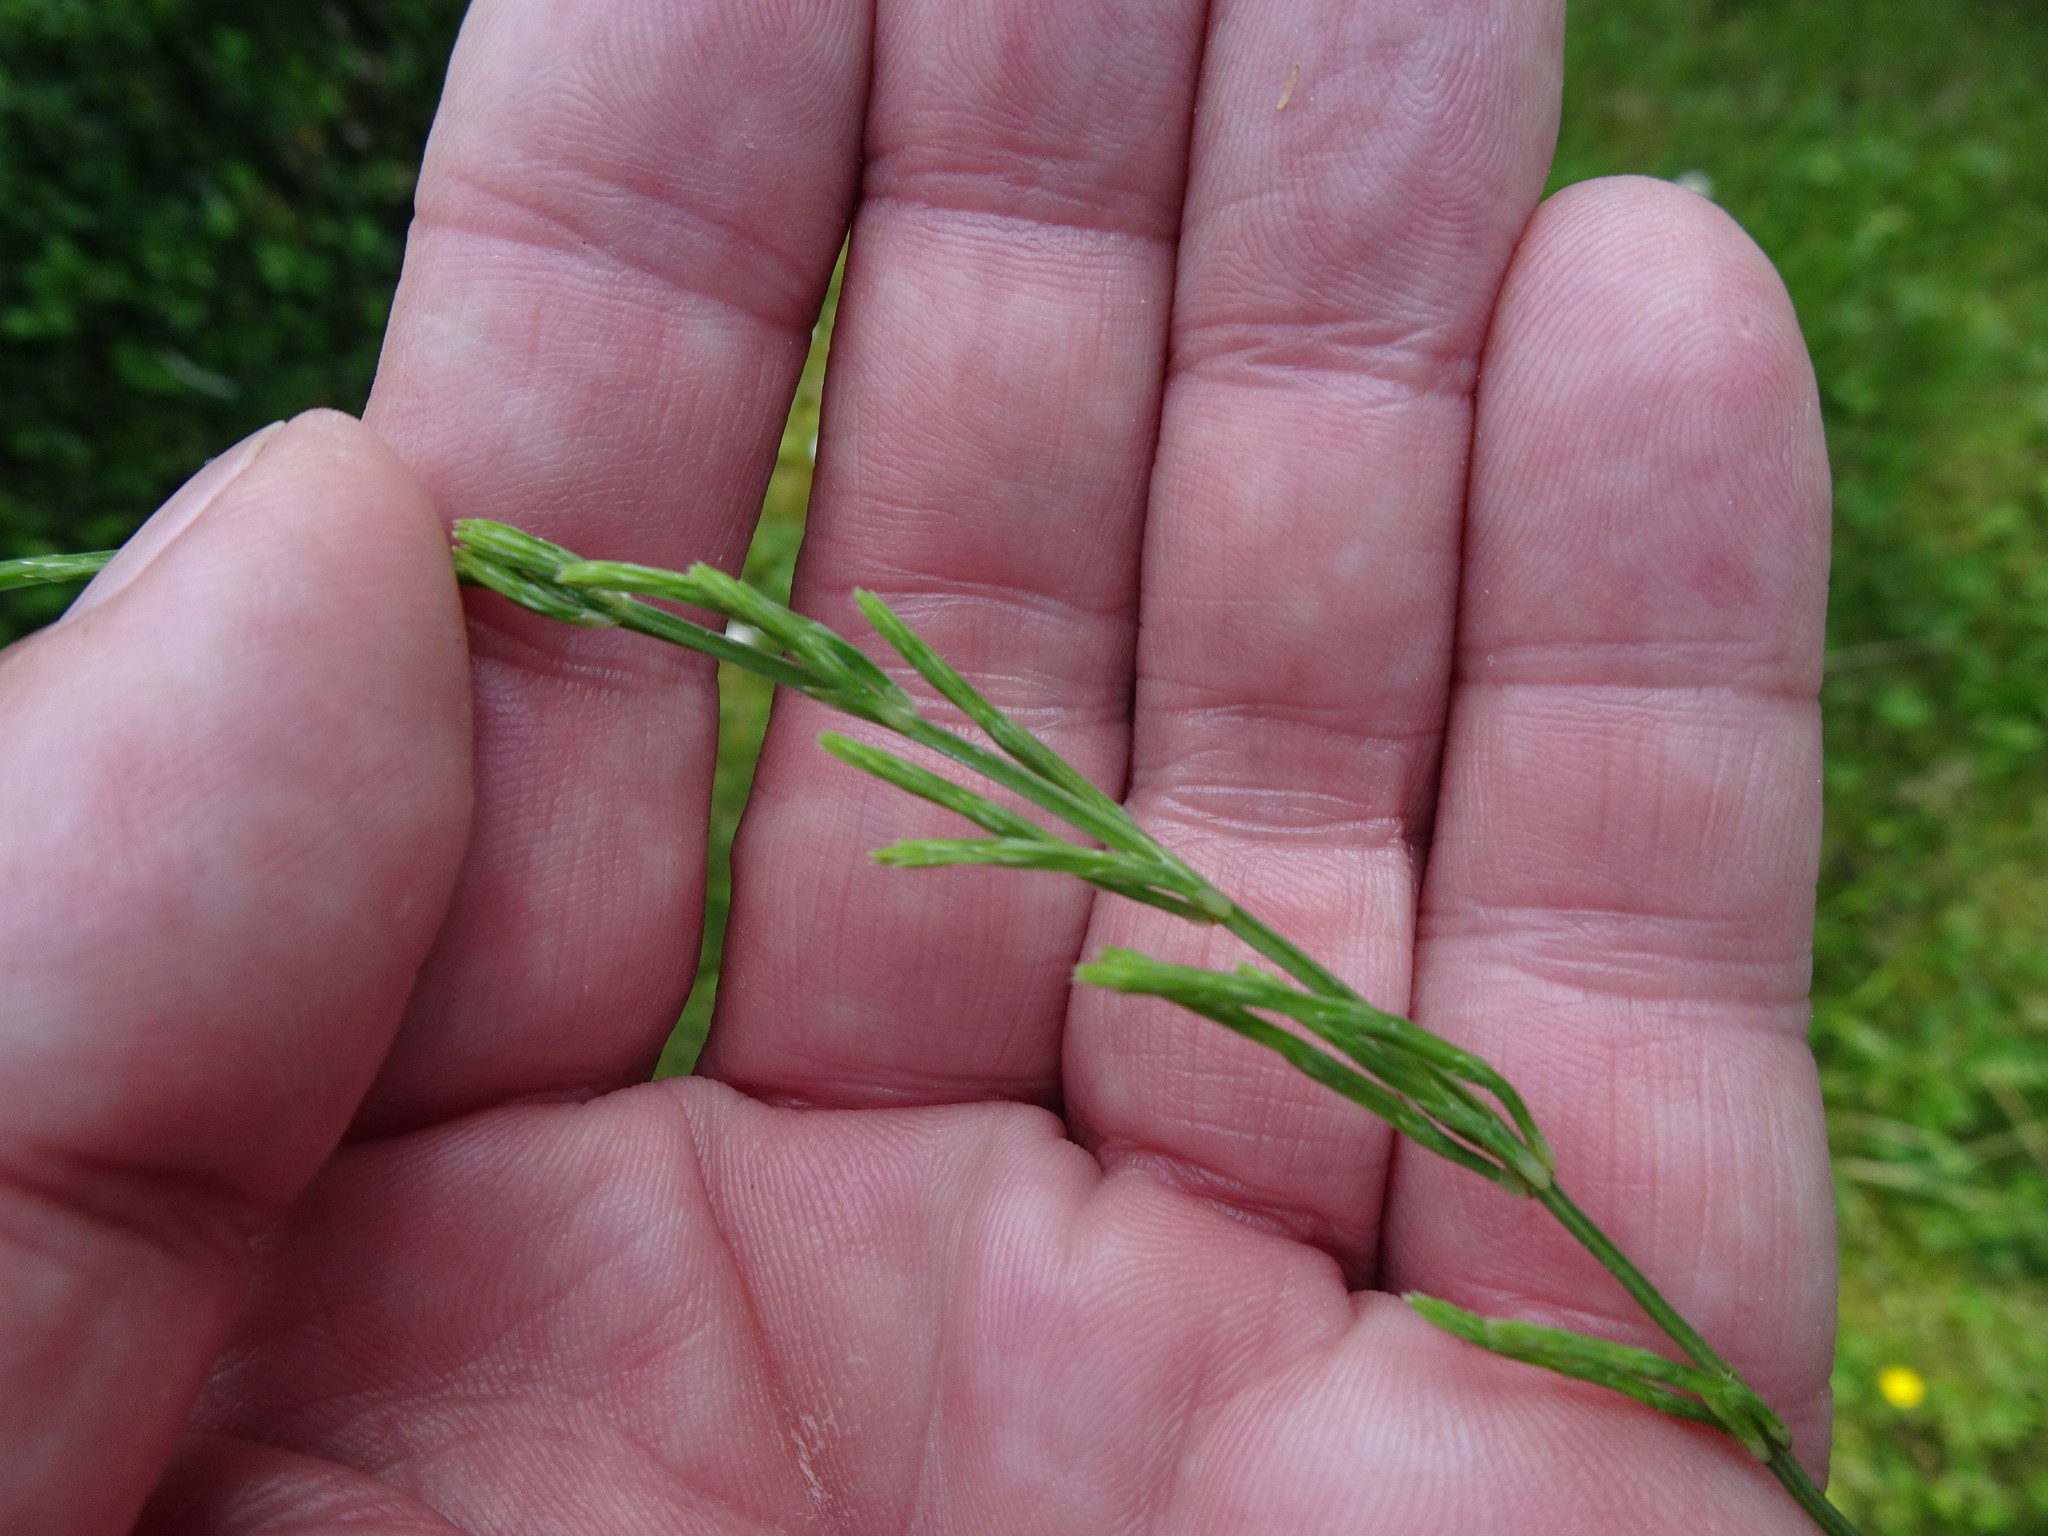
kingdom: Plantae
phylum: Tracheophyta
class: Polypodiopsida
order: Equisetales
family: Equisetaceae
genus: Equisetum
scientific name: Equisetum arvense
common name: Field horsetail
